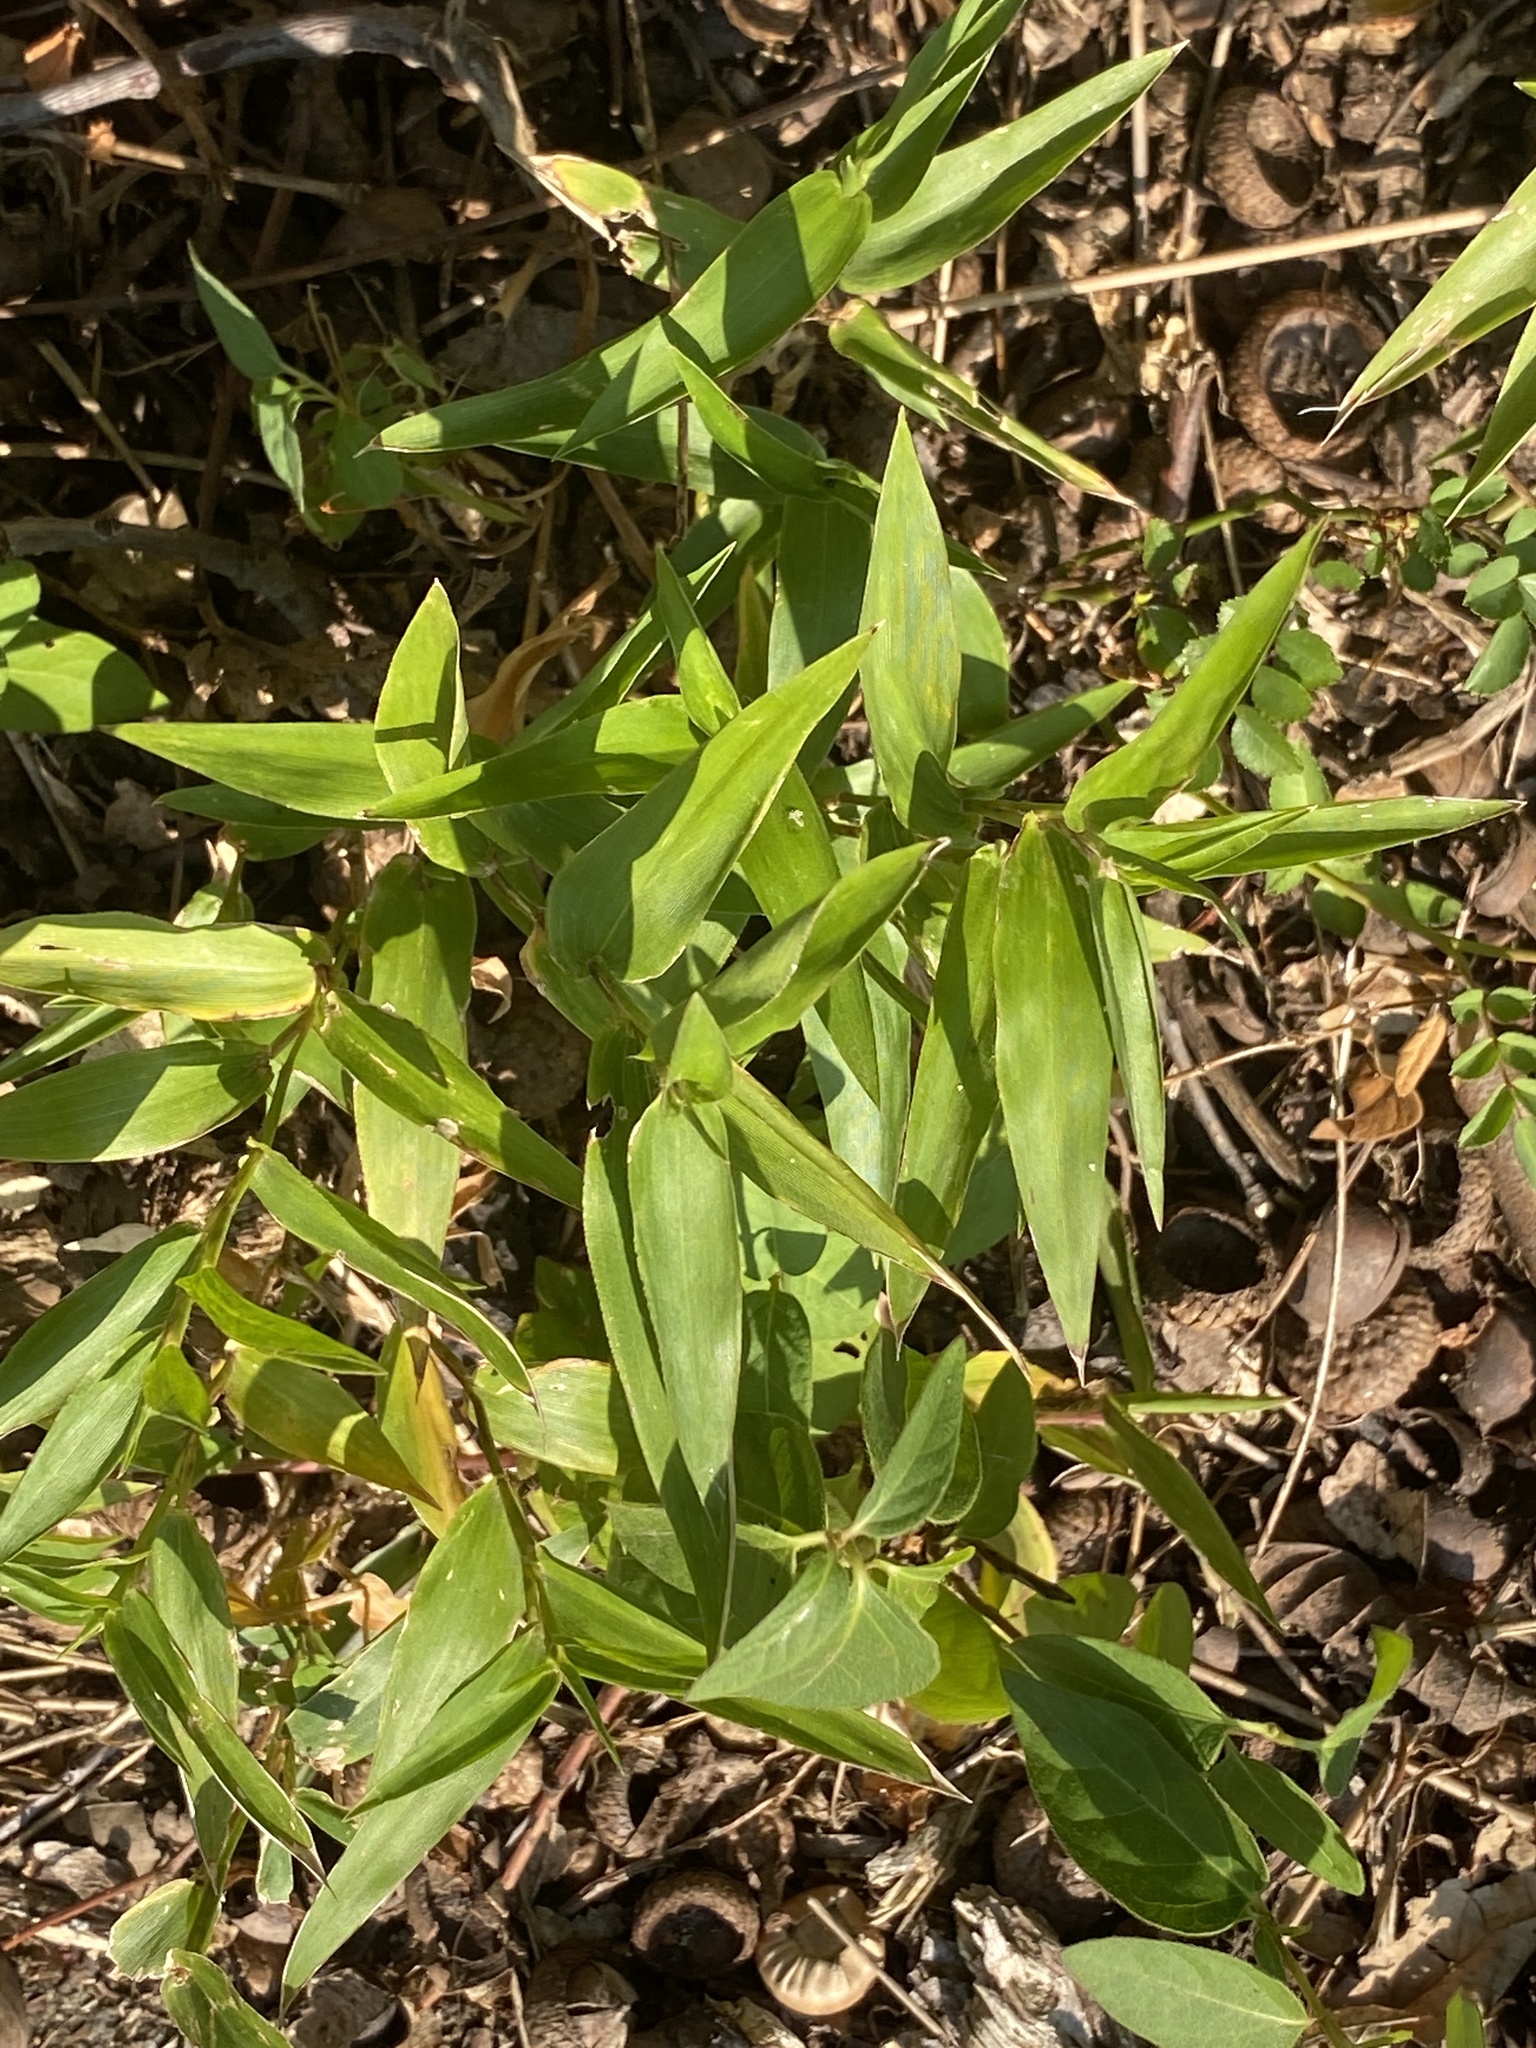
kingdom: Plantae
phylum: Tracheophyta
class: Liliopsida
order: Poales
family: Poaceae
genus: Dichanthelium
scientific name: Dichanthelium clandestinum
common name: Deer-tongue grass
